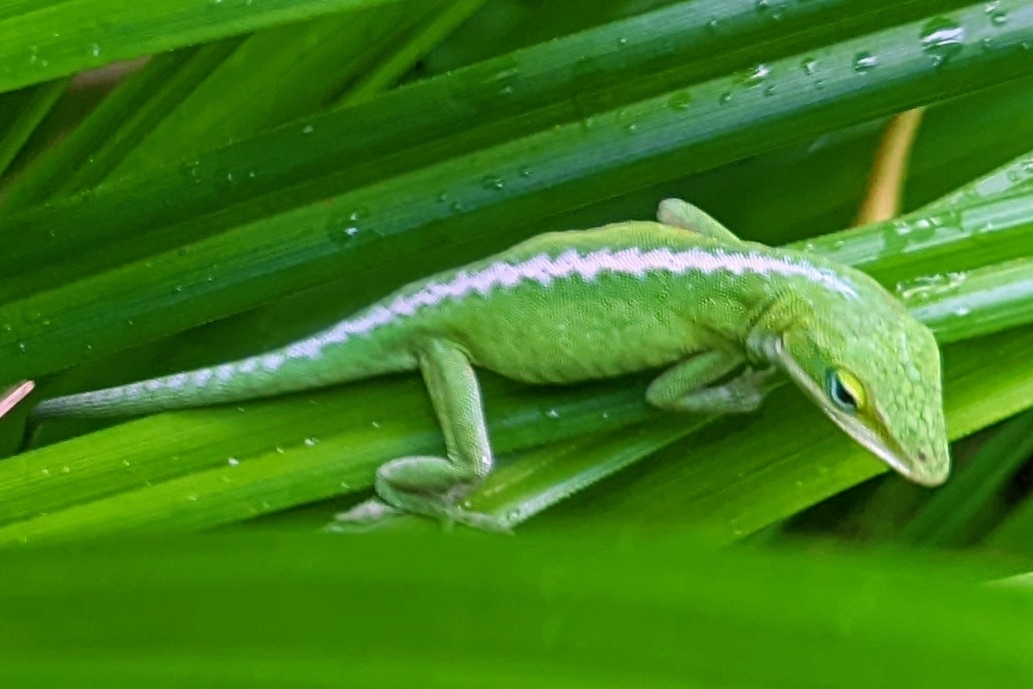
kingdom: Animalia
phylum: Chordata
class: Squamata
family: Dactyloidae
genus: Anolis
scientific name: Anolis carolinensis
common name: Green anole
